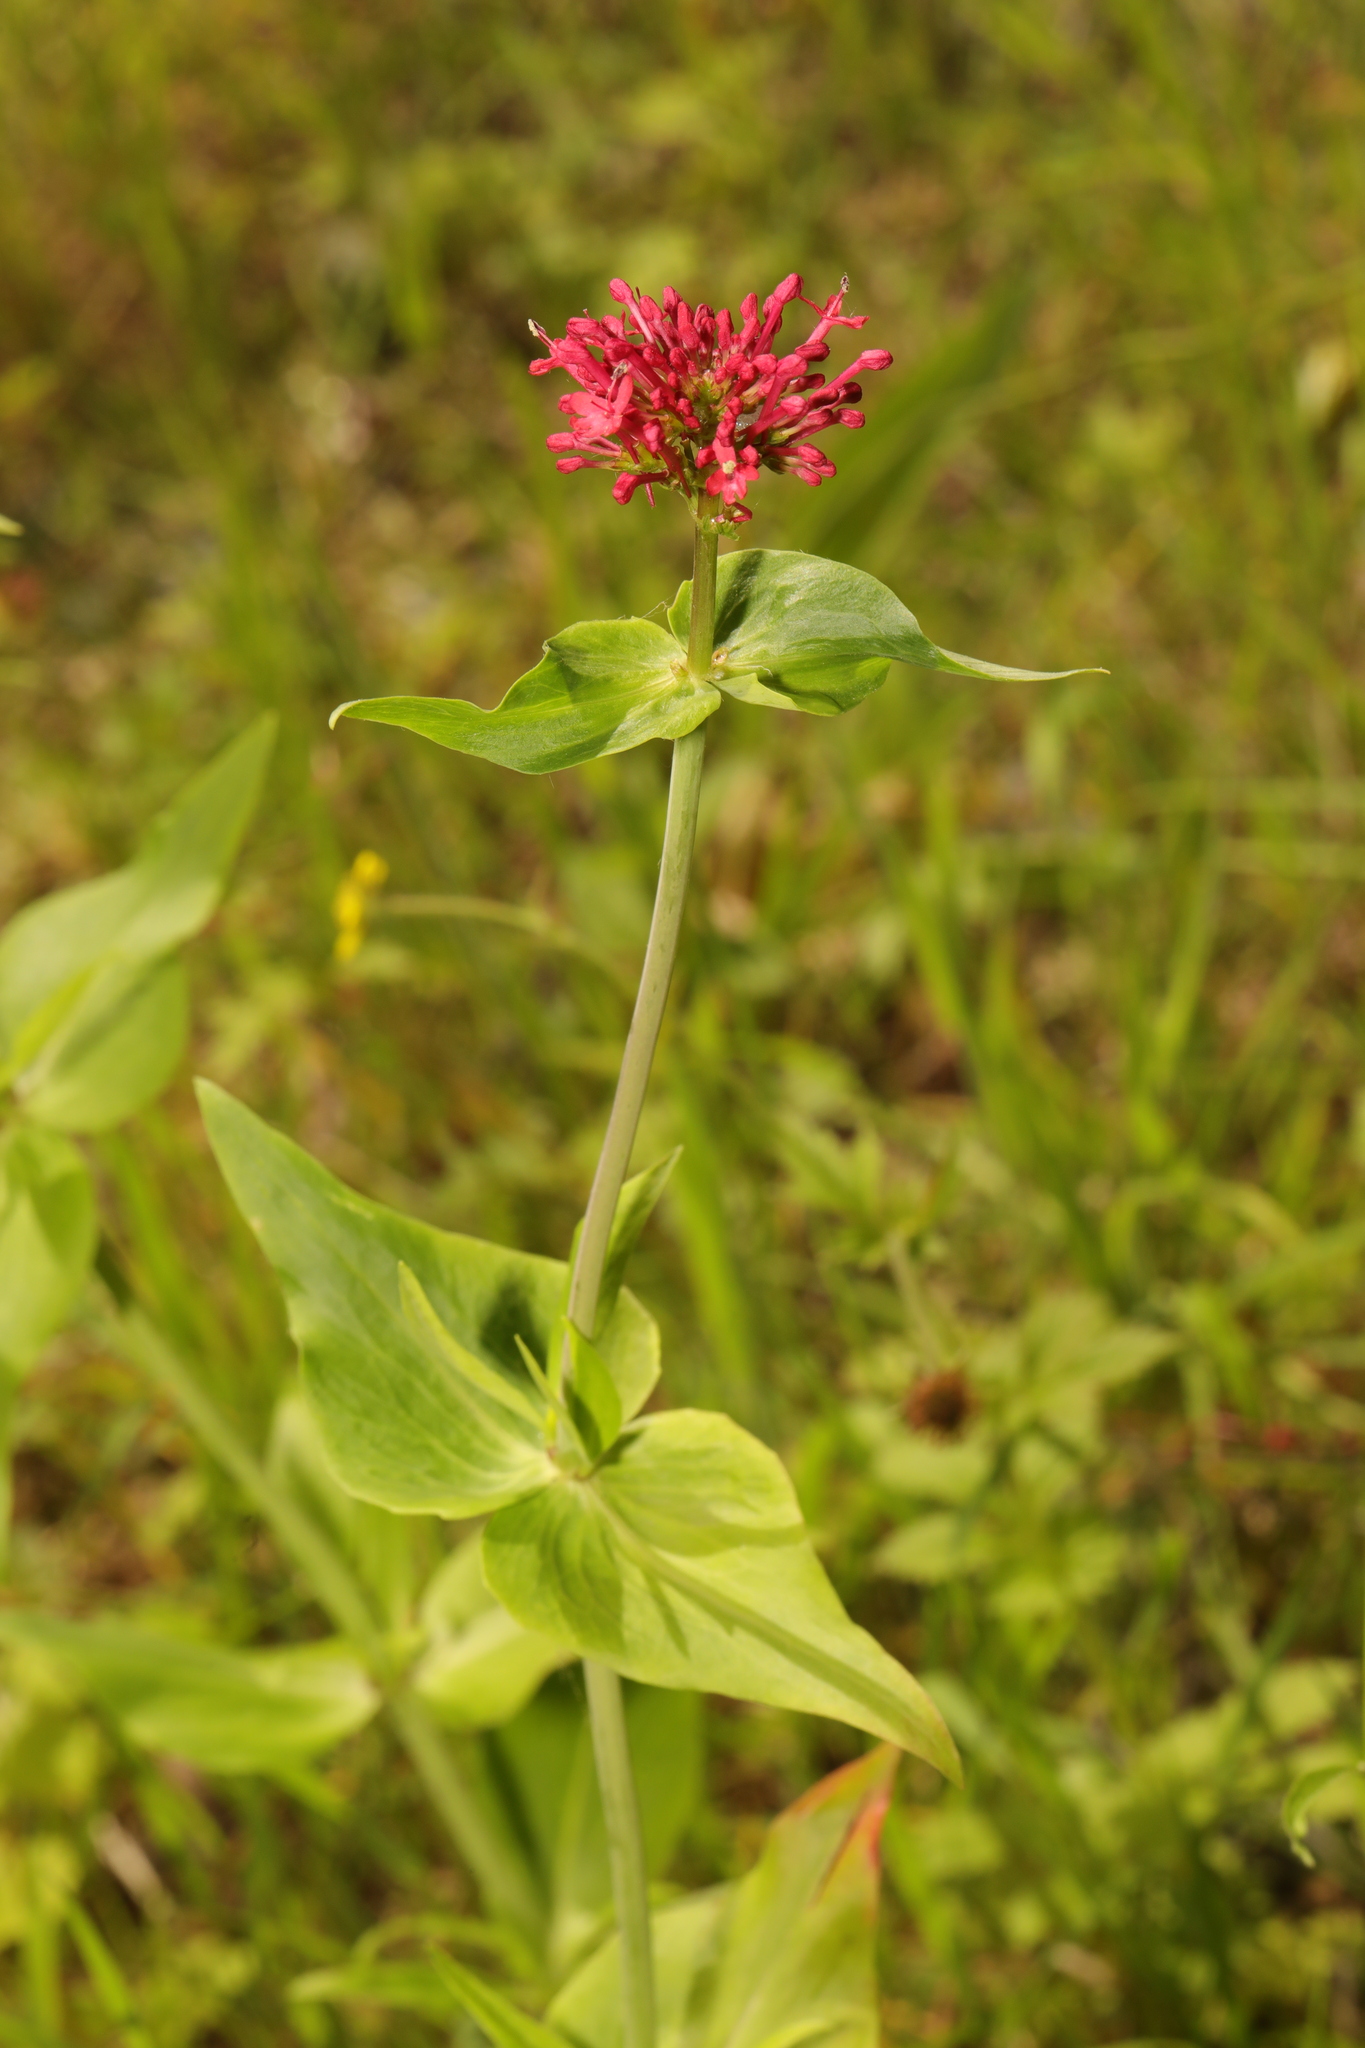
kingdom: Plantae
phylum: Tracheophyta
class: Magnoliopsida
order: Dipsacales
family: Caprifoliaceae
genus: Centranthus
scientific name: Centranthus ruber
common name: Red valerian
